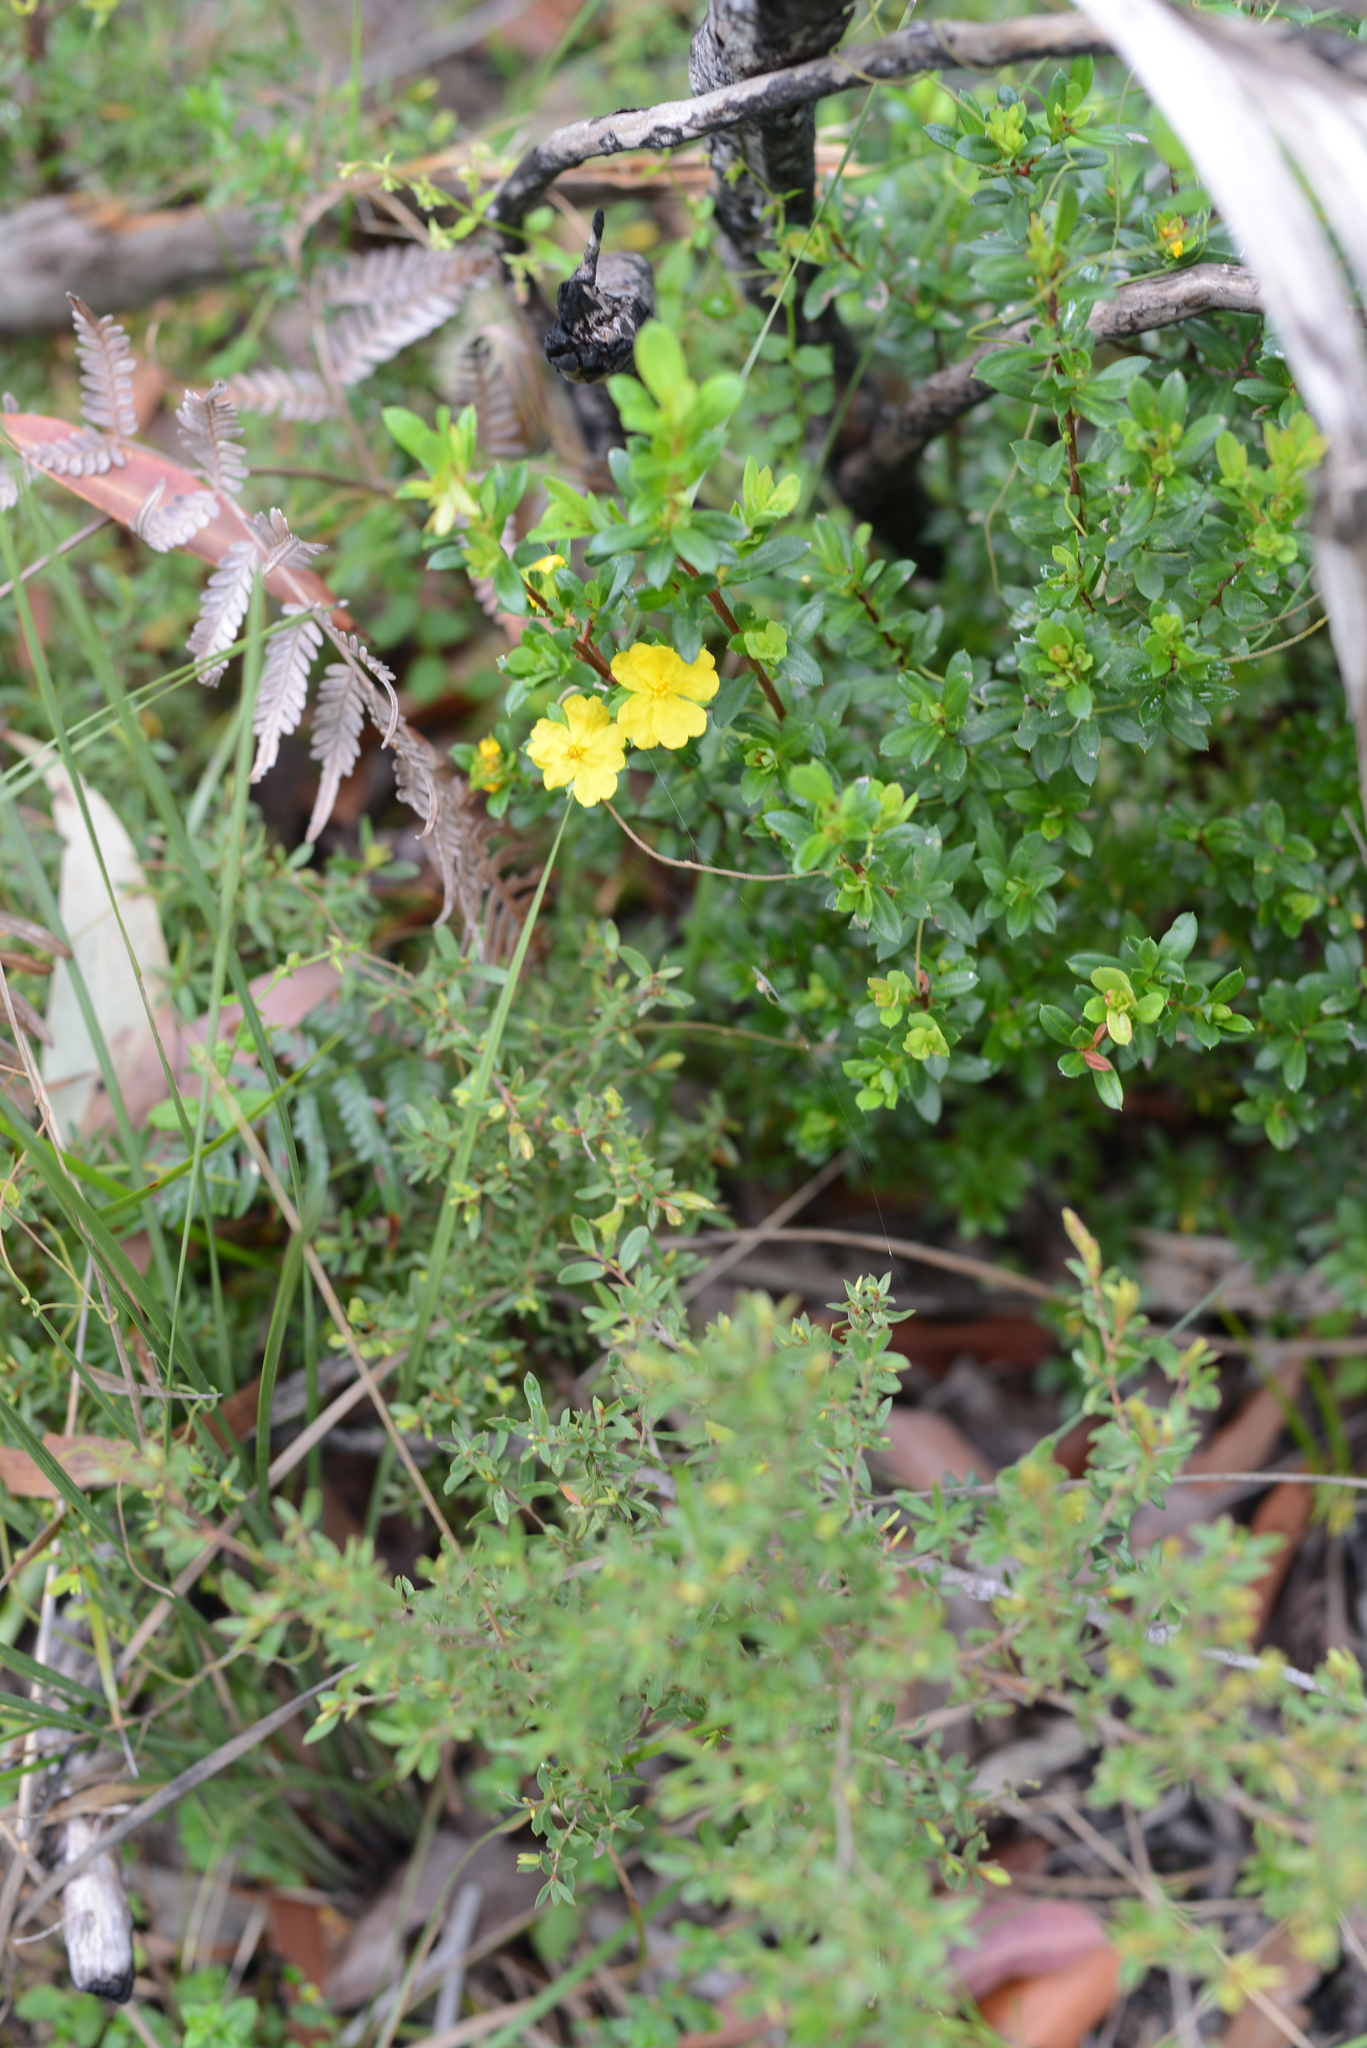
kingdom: Plantae
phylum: Tracheophyta
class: Magnoliopsida
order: Dilleniales
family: Dilleniaceae
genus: Hibbertia
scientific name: Hibbertia nitida
